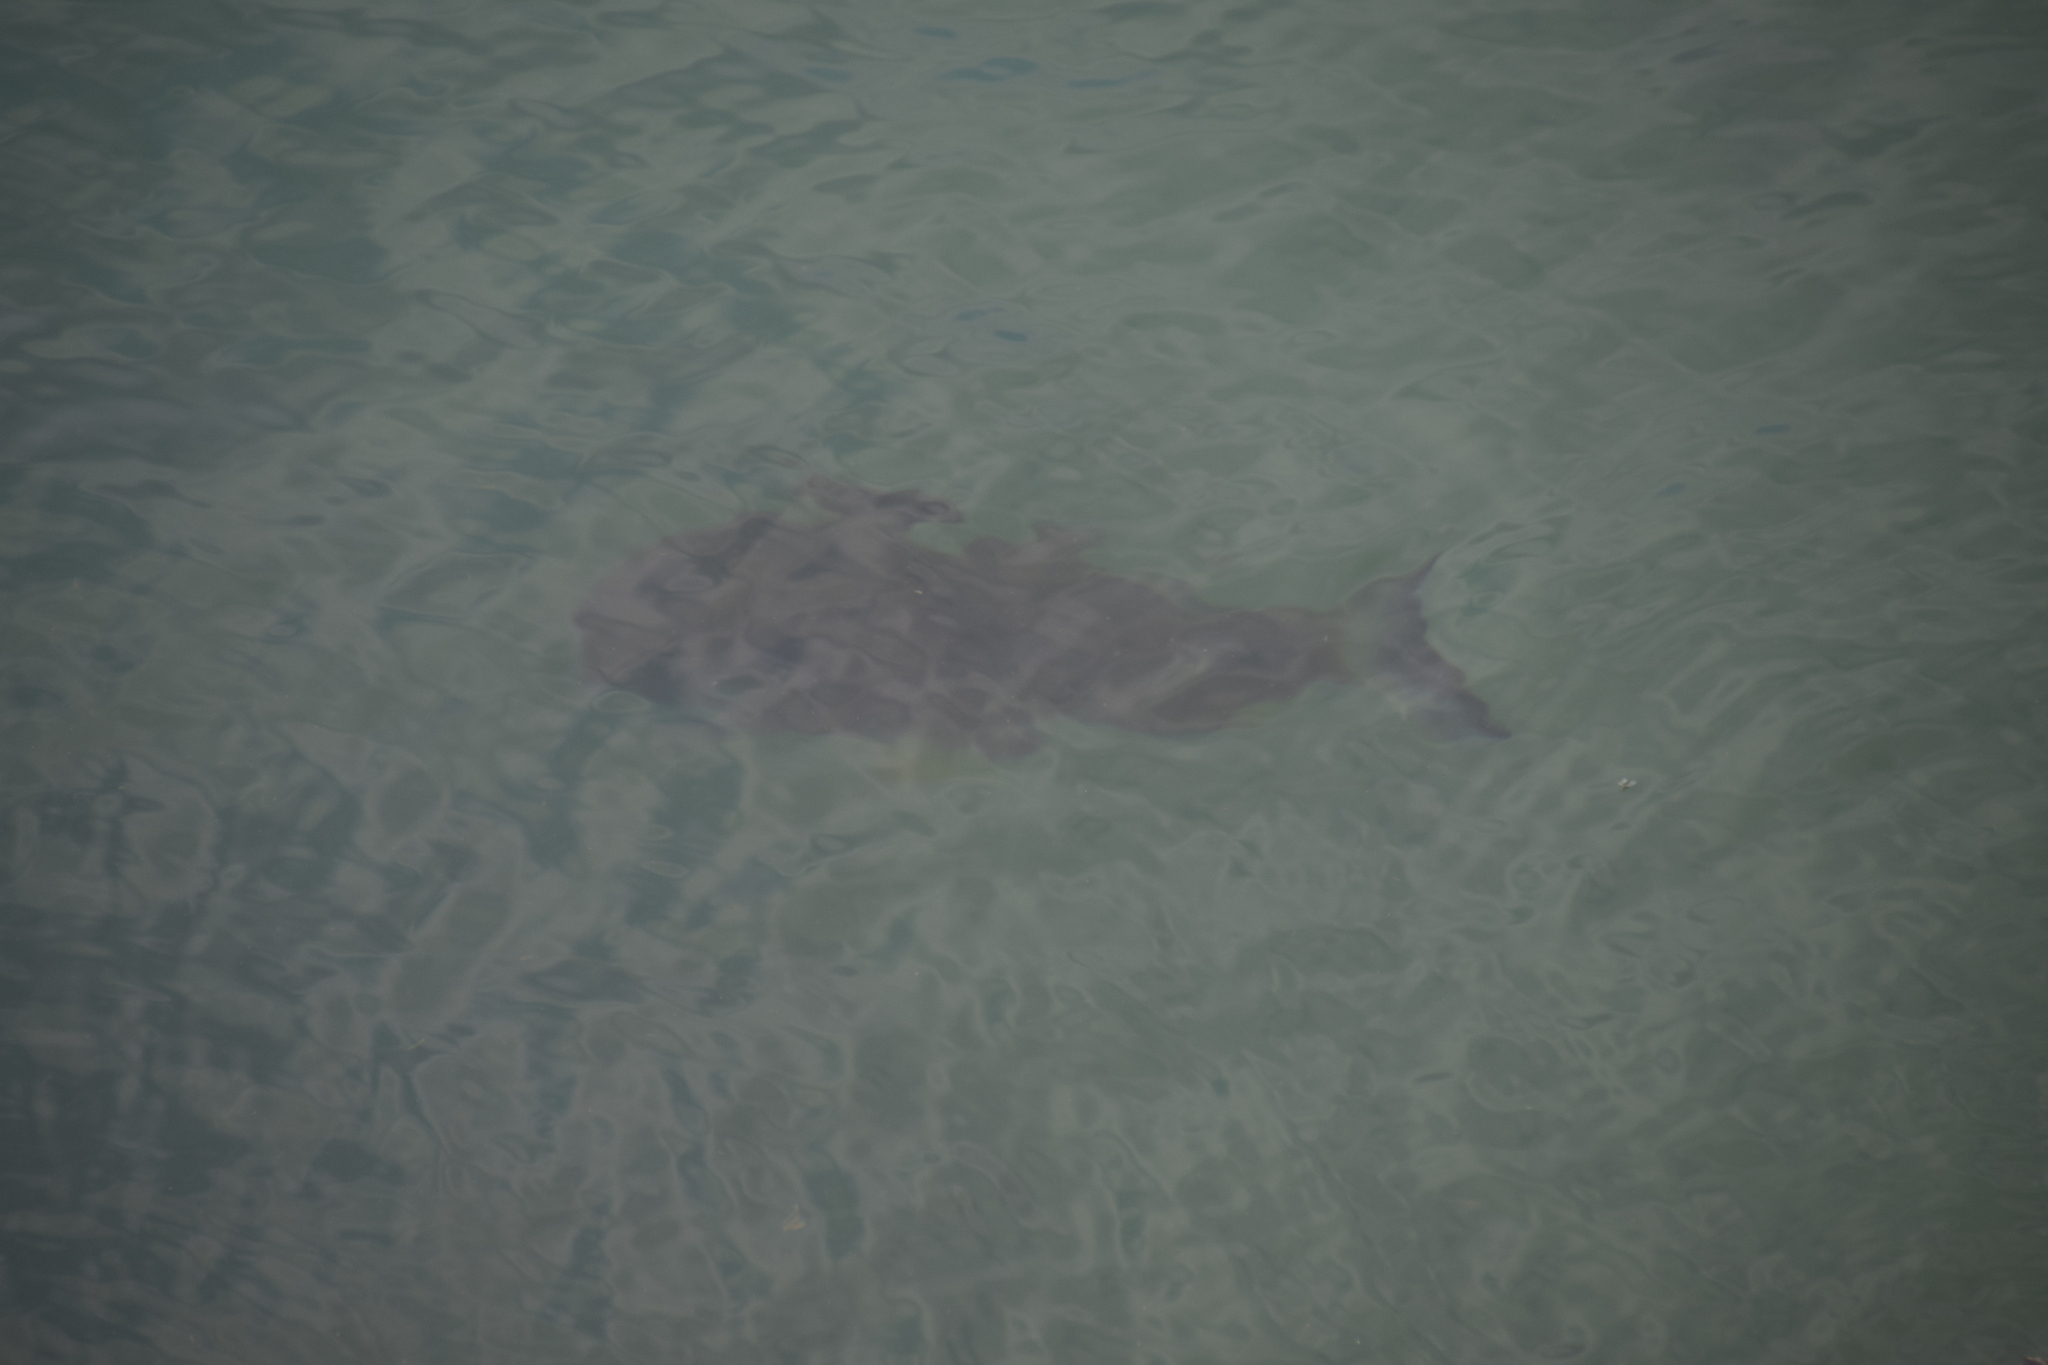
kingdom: Animalia
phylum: Chordata
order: Perciformes
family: Sparidae
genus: Acanthopagrus
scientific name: Acanthopagrus australis
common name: Surf bream
